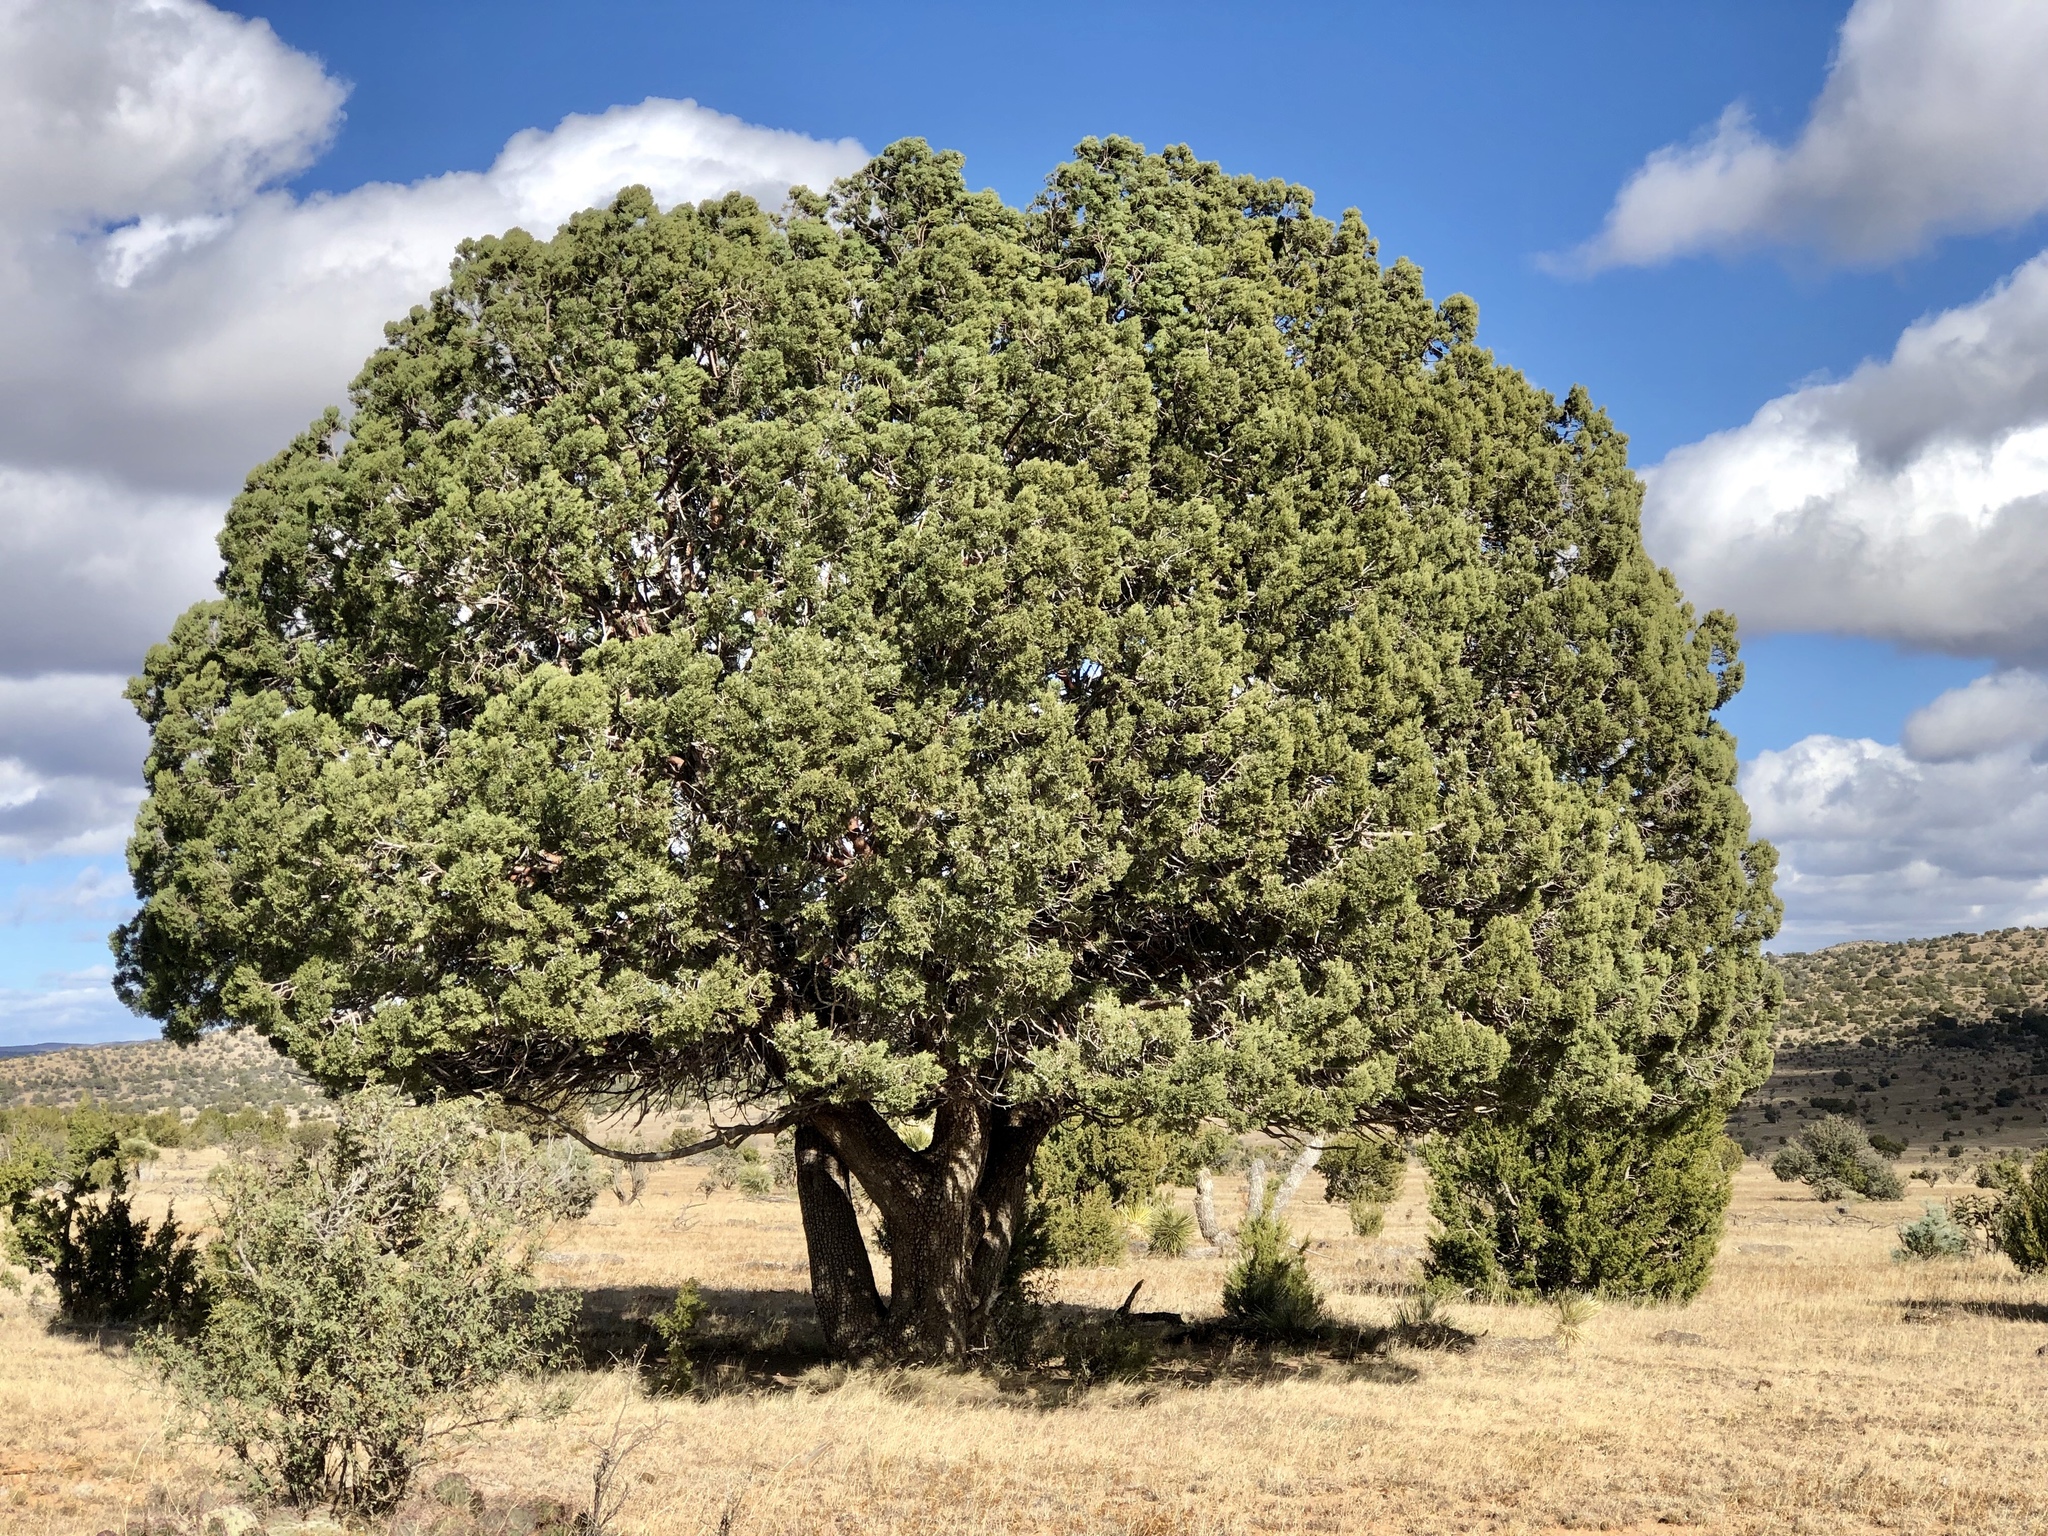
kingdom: Plantae
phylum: Tracheophyta
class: Pinopsida
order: Pinales
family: Cupressaceae
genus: Juniperus
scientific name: Juniperus deppeana
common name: Alligator juniper
